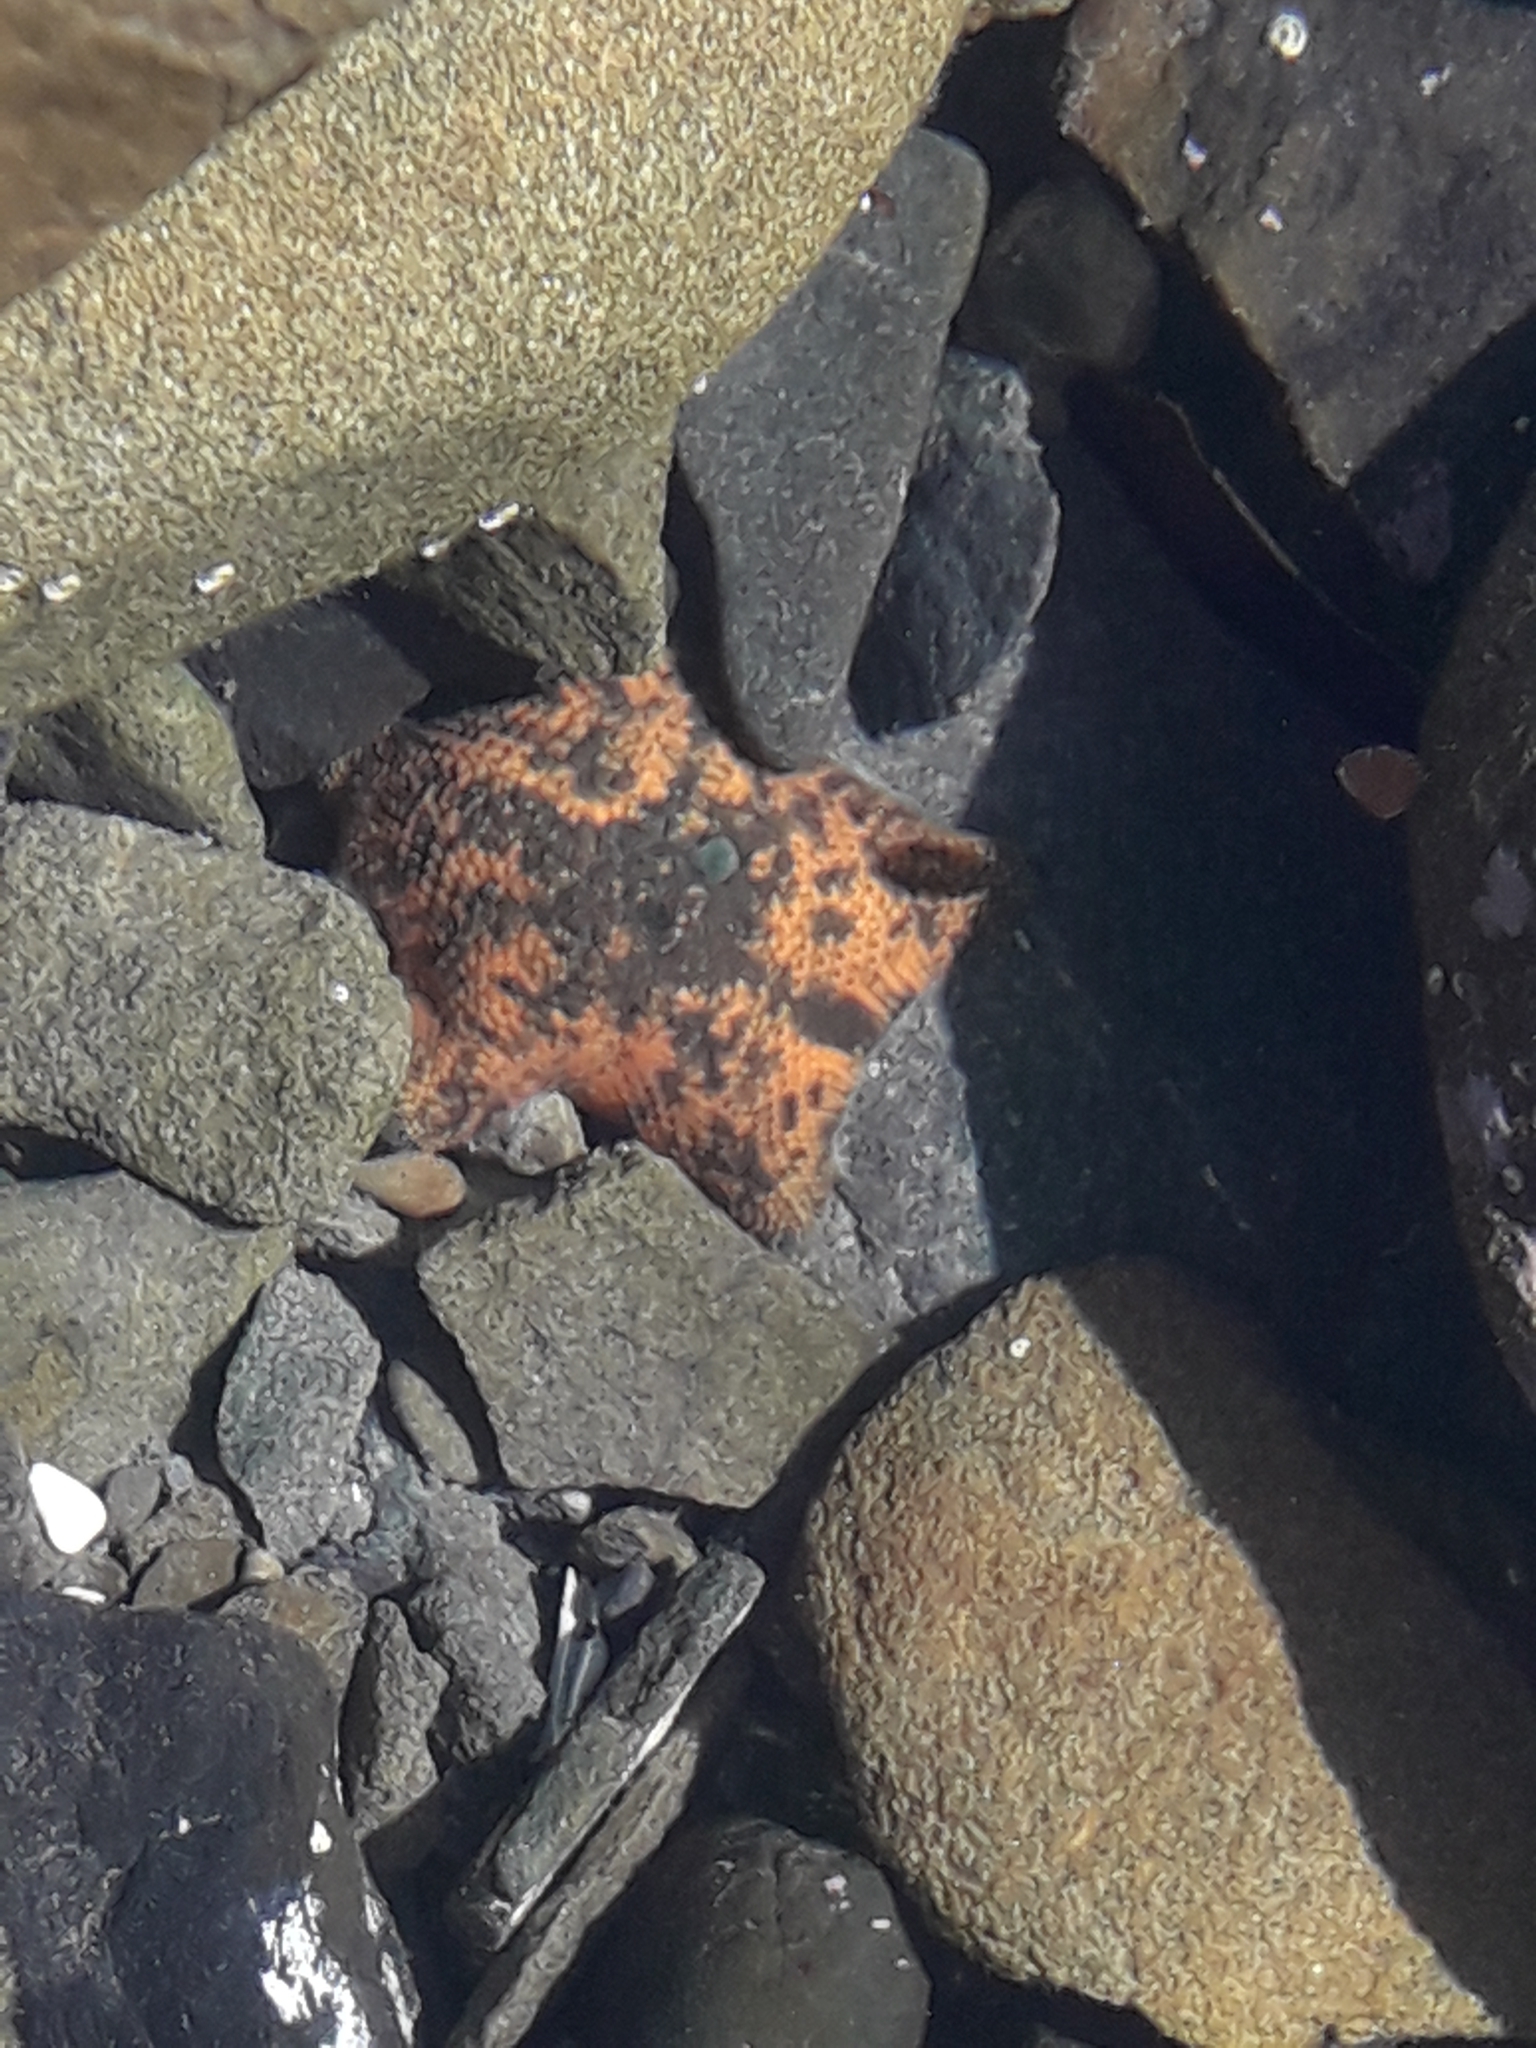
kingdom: Animalia
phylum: Echinodermata
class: Asteroidea
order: Valvatida
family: Asterinidae
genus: Patiriella
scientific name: Patiriella regularis
